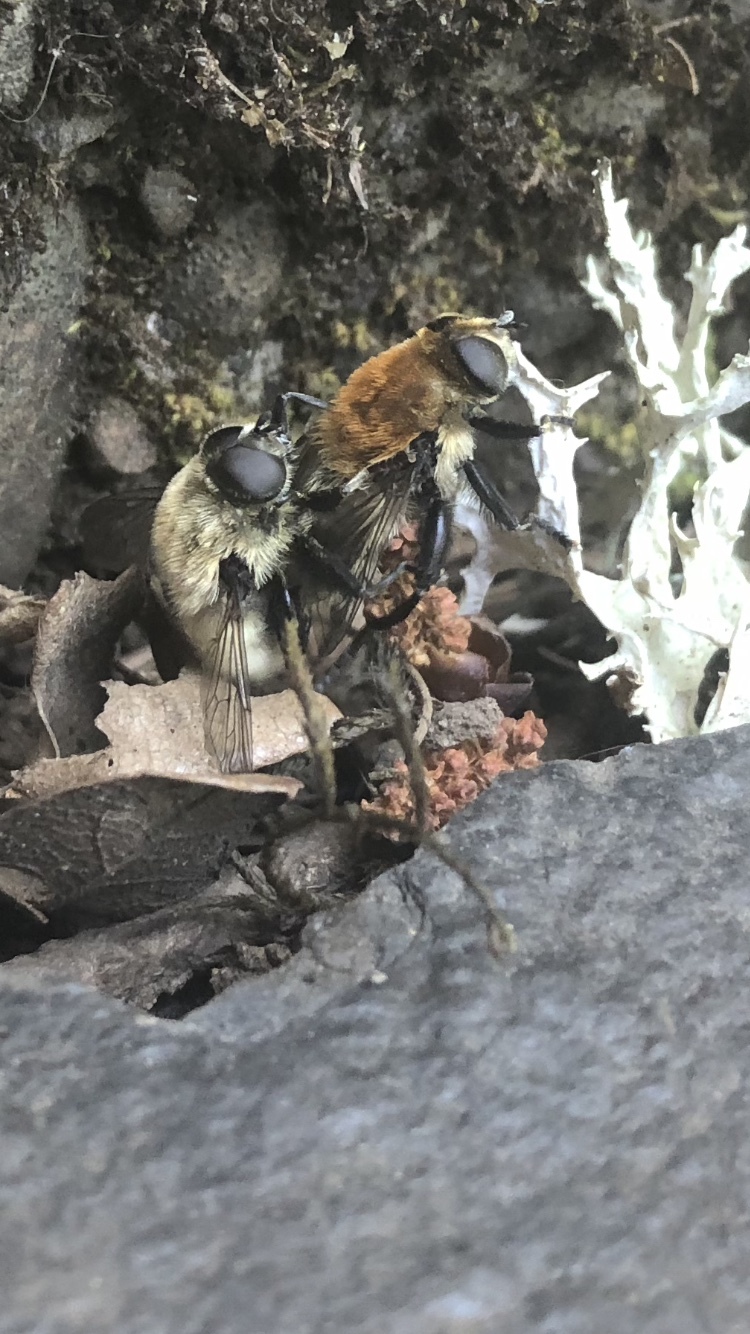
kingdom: Animalia
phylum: Arthropoda
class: Insecta
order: Diptera
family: Syrphidae
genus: Merodon
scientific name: Merodon equestris
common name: Greater bulb-fly
